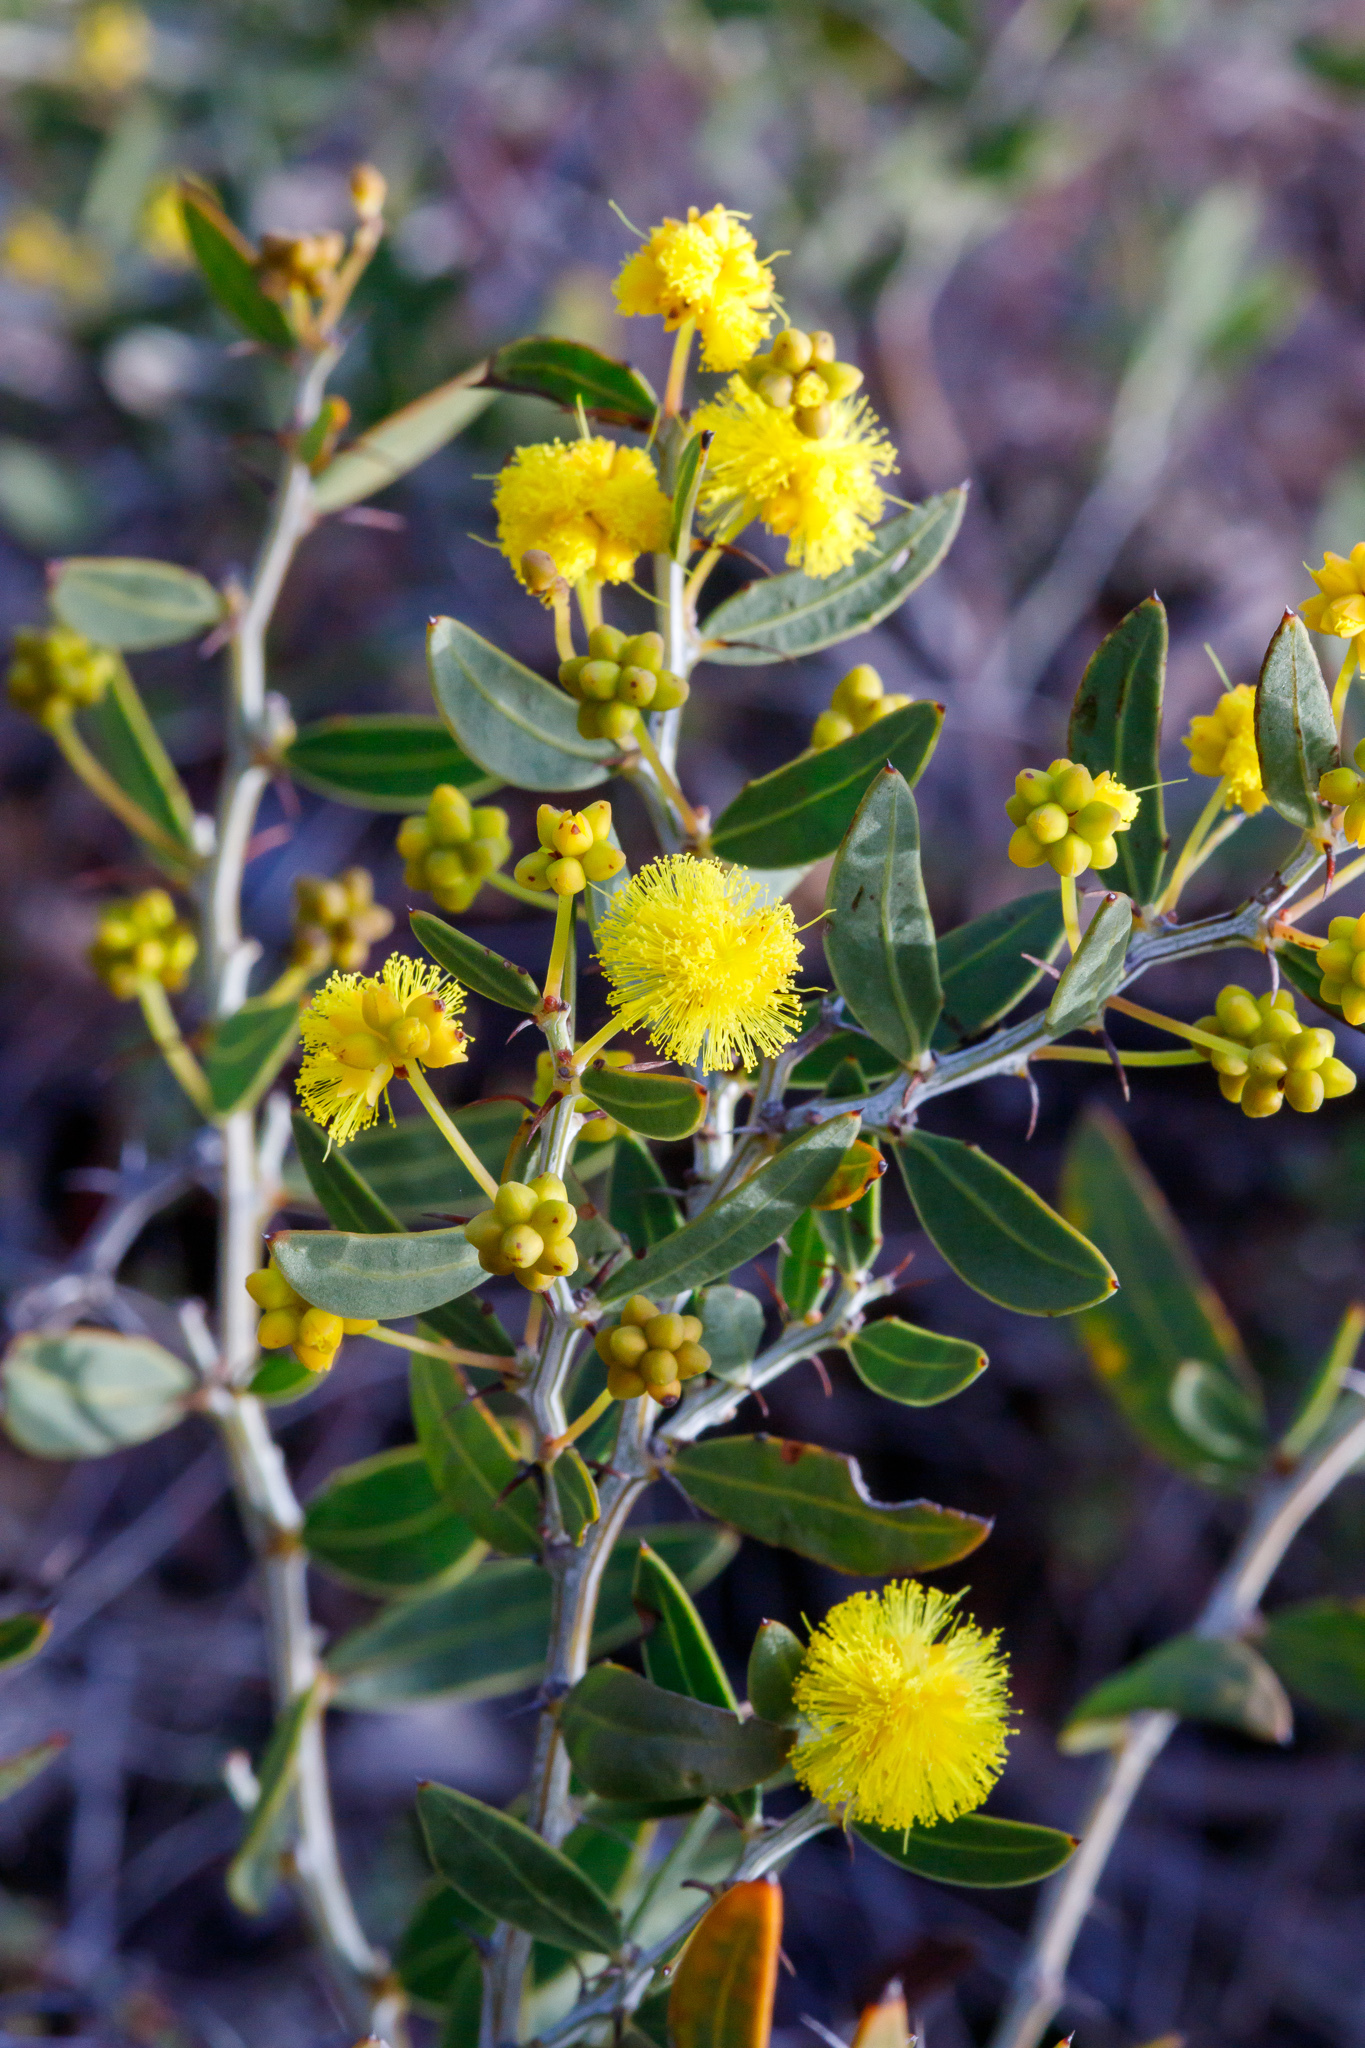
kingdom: Plantae
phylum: Tracheophyta
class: Magnoliopsida
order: Fabales
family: Fabaceae
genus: Acacia
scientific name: Acacia nervosa
